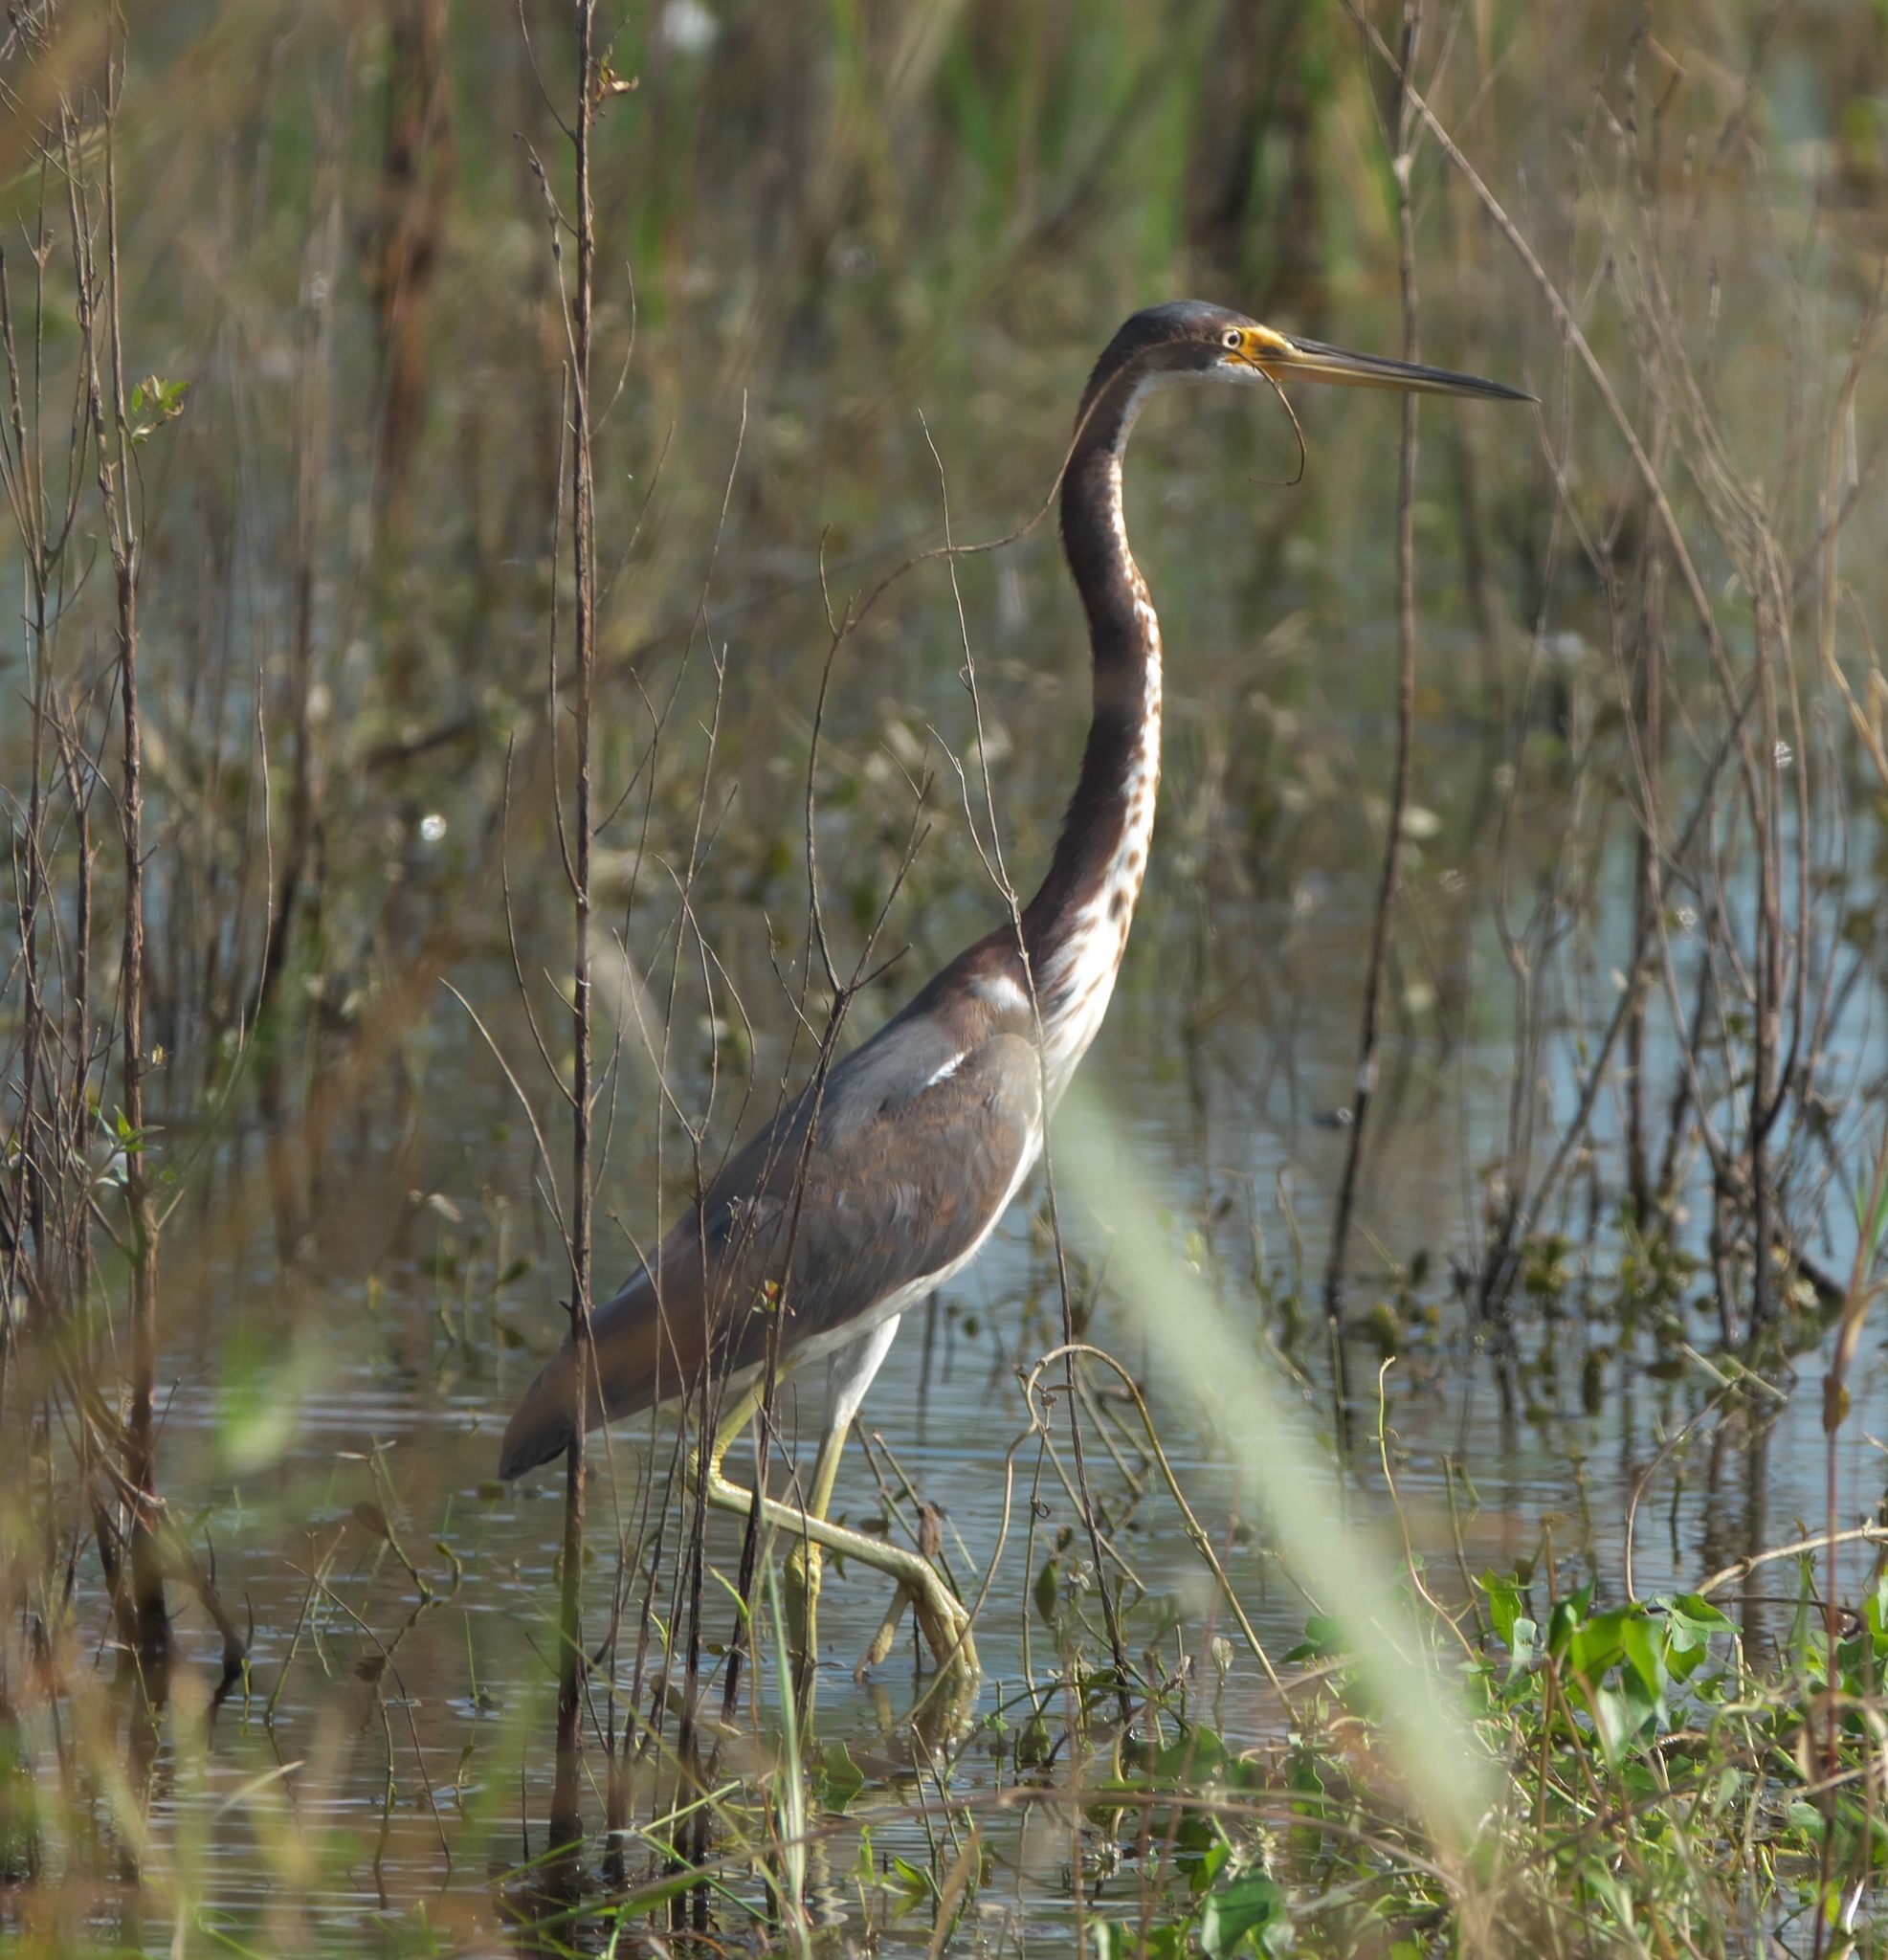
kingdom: Animalia
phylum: Chordata
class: Aves
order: Pelecaniformes
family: Ardeidae
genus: Egretta
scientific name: Egretta tricolor
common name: Tricolored heron
